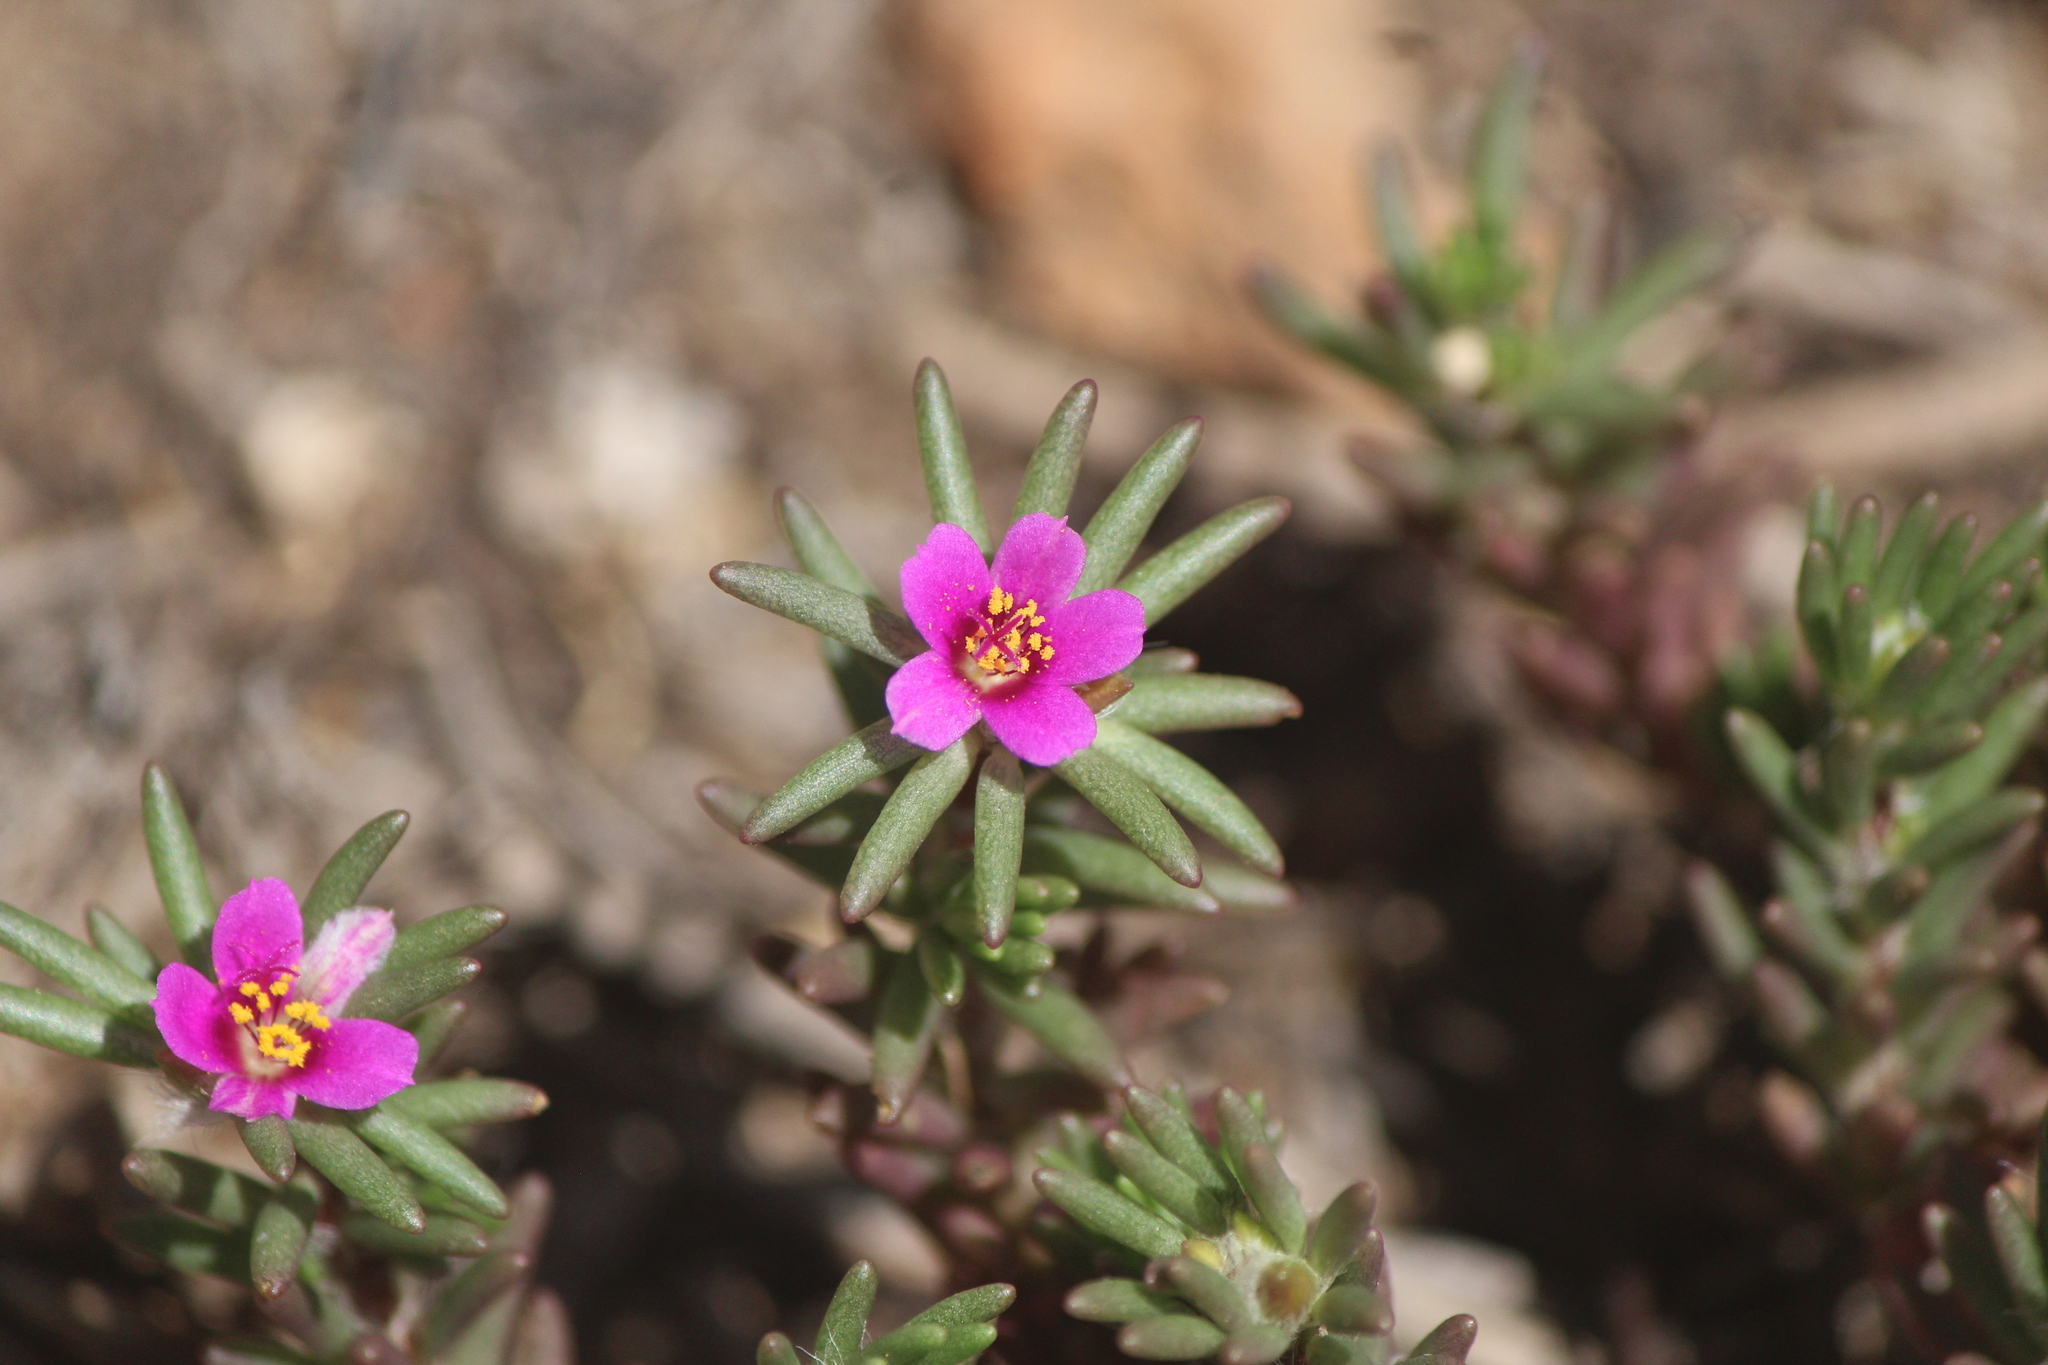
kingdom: Plantae
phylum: Tracheophyta
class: Magnoliopsida
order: Caryophyllales
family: Portulacaceae
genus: Portulaca
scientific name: Portulaca pilosa
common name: Kiss me quick
